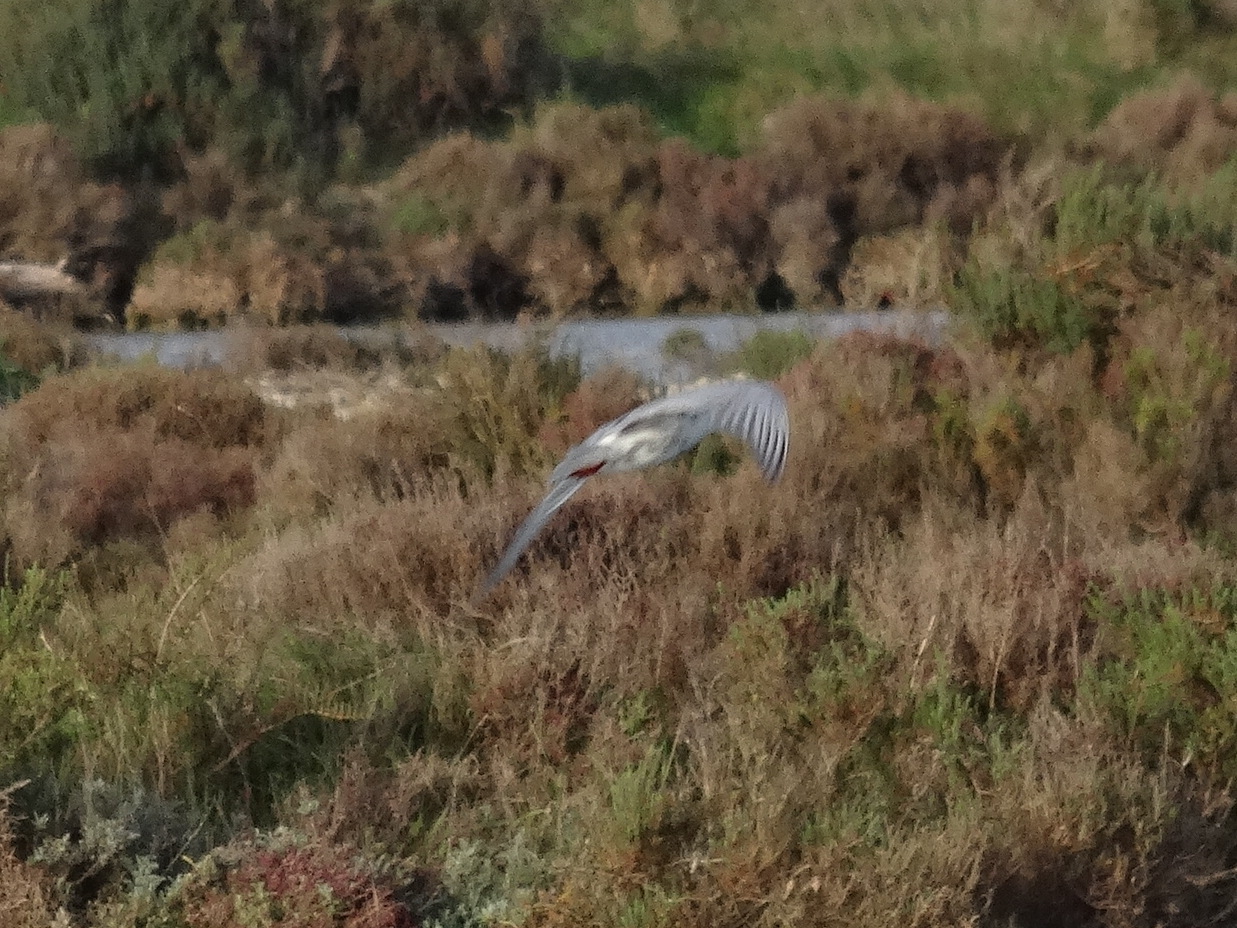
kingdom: Animalia
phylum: Chordata
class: Aves
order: Charadriiformes
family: Laridae
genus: Chlidonias
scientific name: Chlidonias hybrida
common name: Whiskered tern
